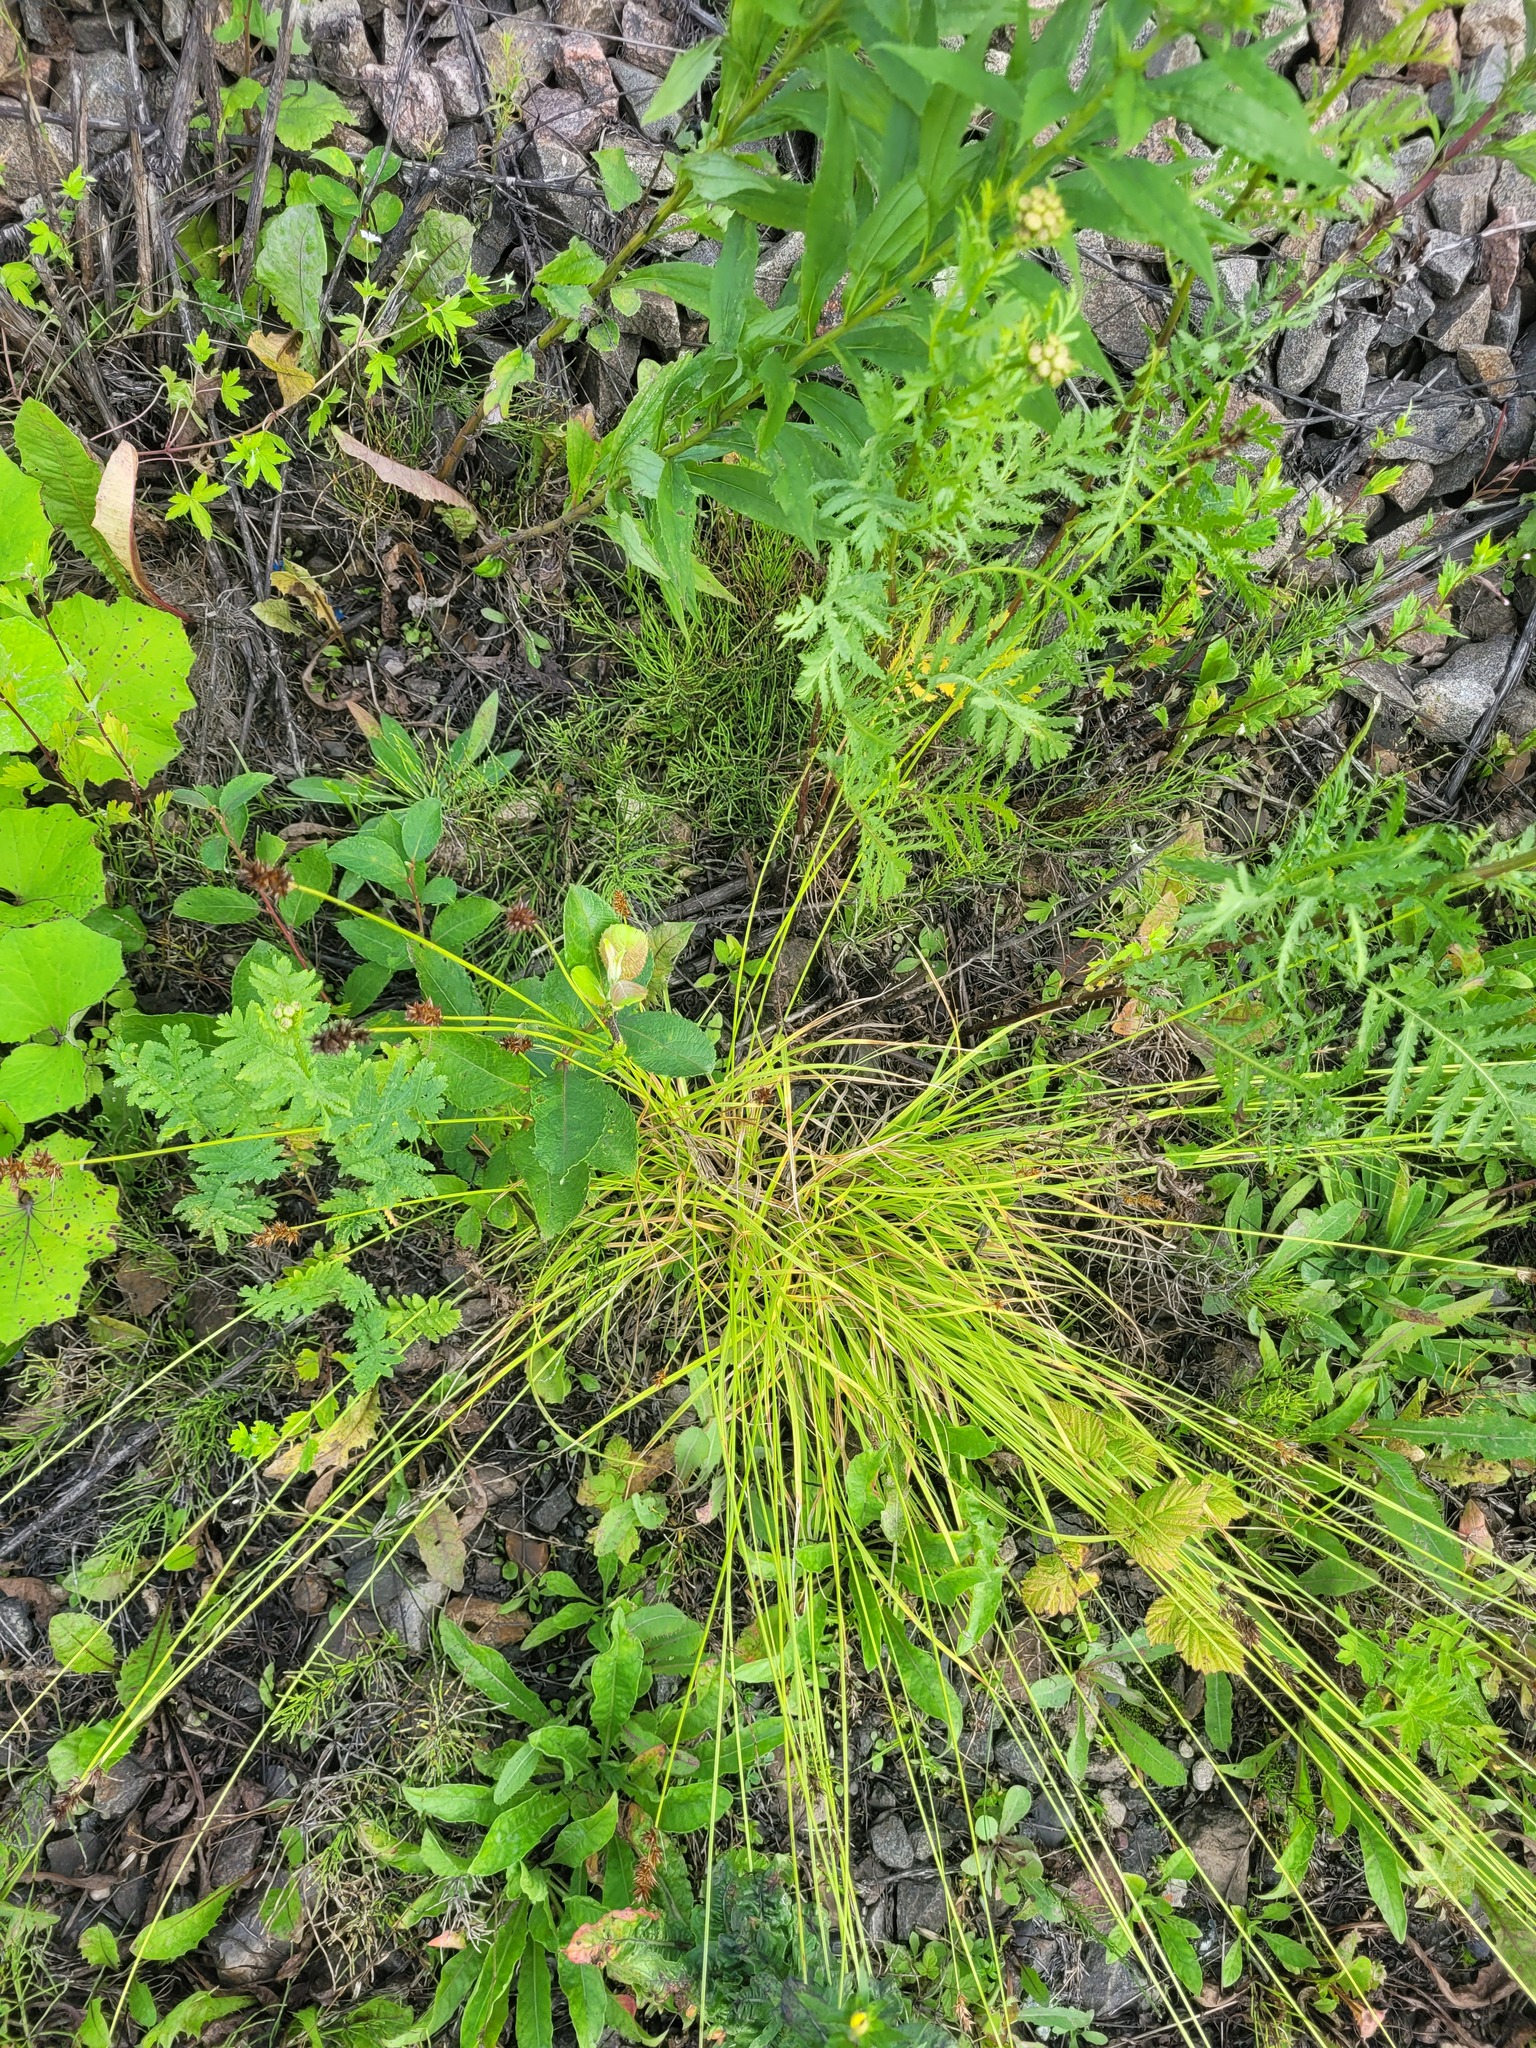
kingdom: Plantae
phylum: Tracheophyta
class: Liliopsida
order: Poales
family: Cyperaceae
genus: Carex
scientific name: Carex spicata
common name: Spiked sedge
